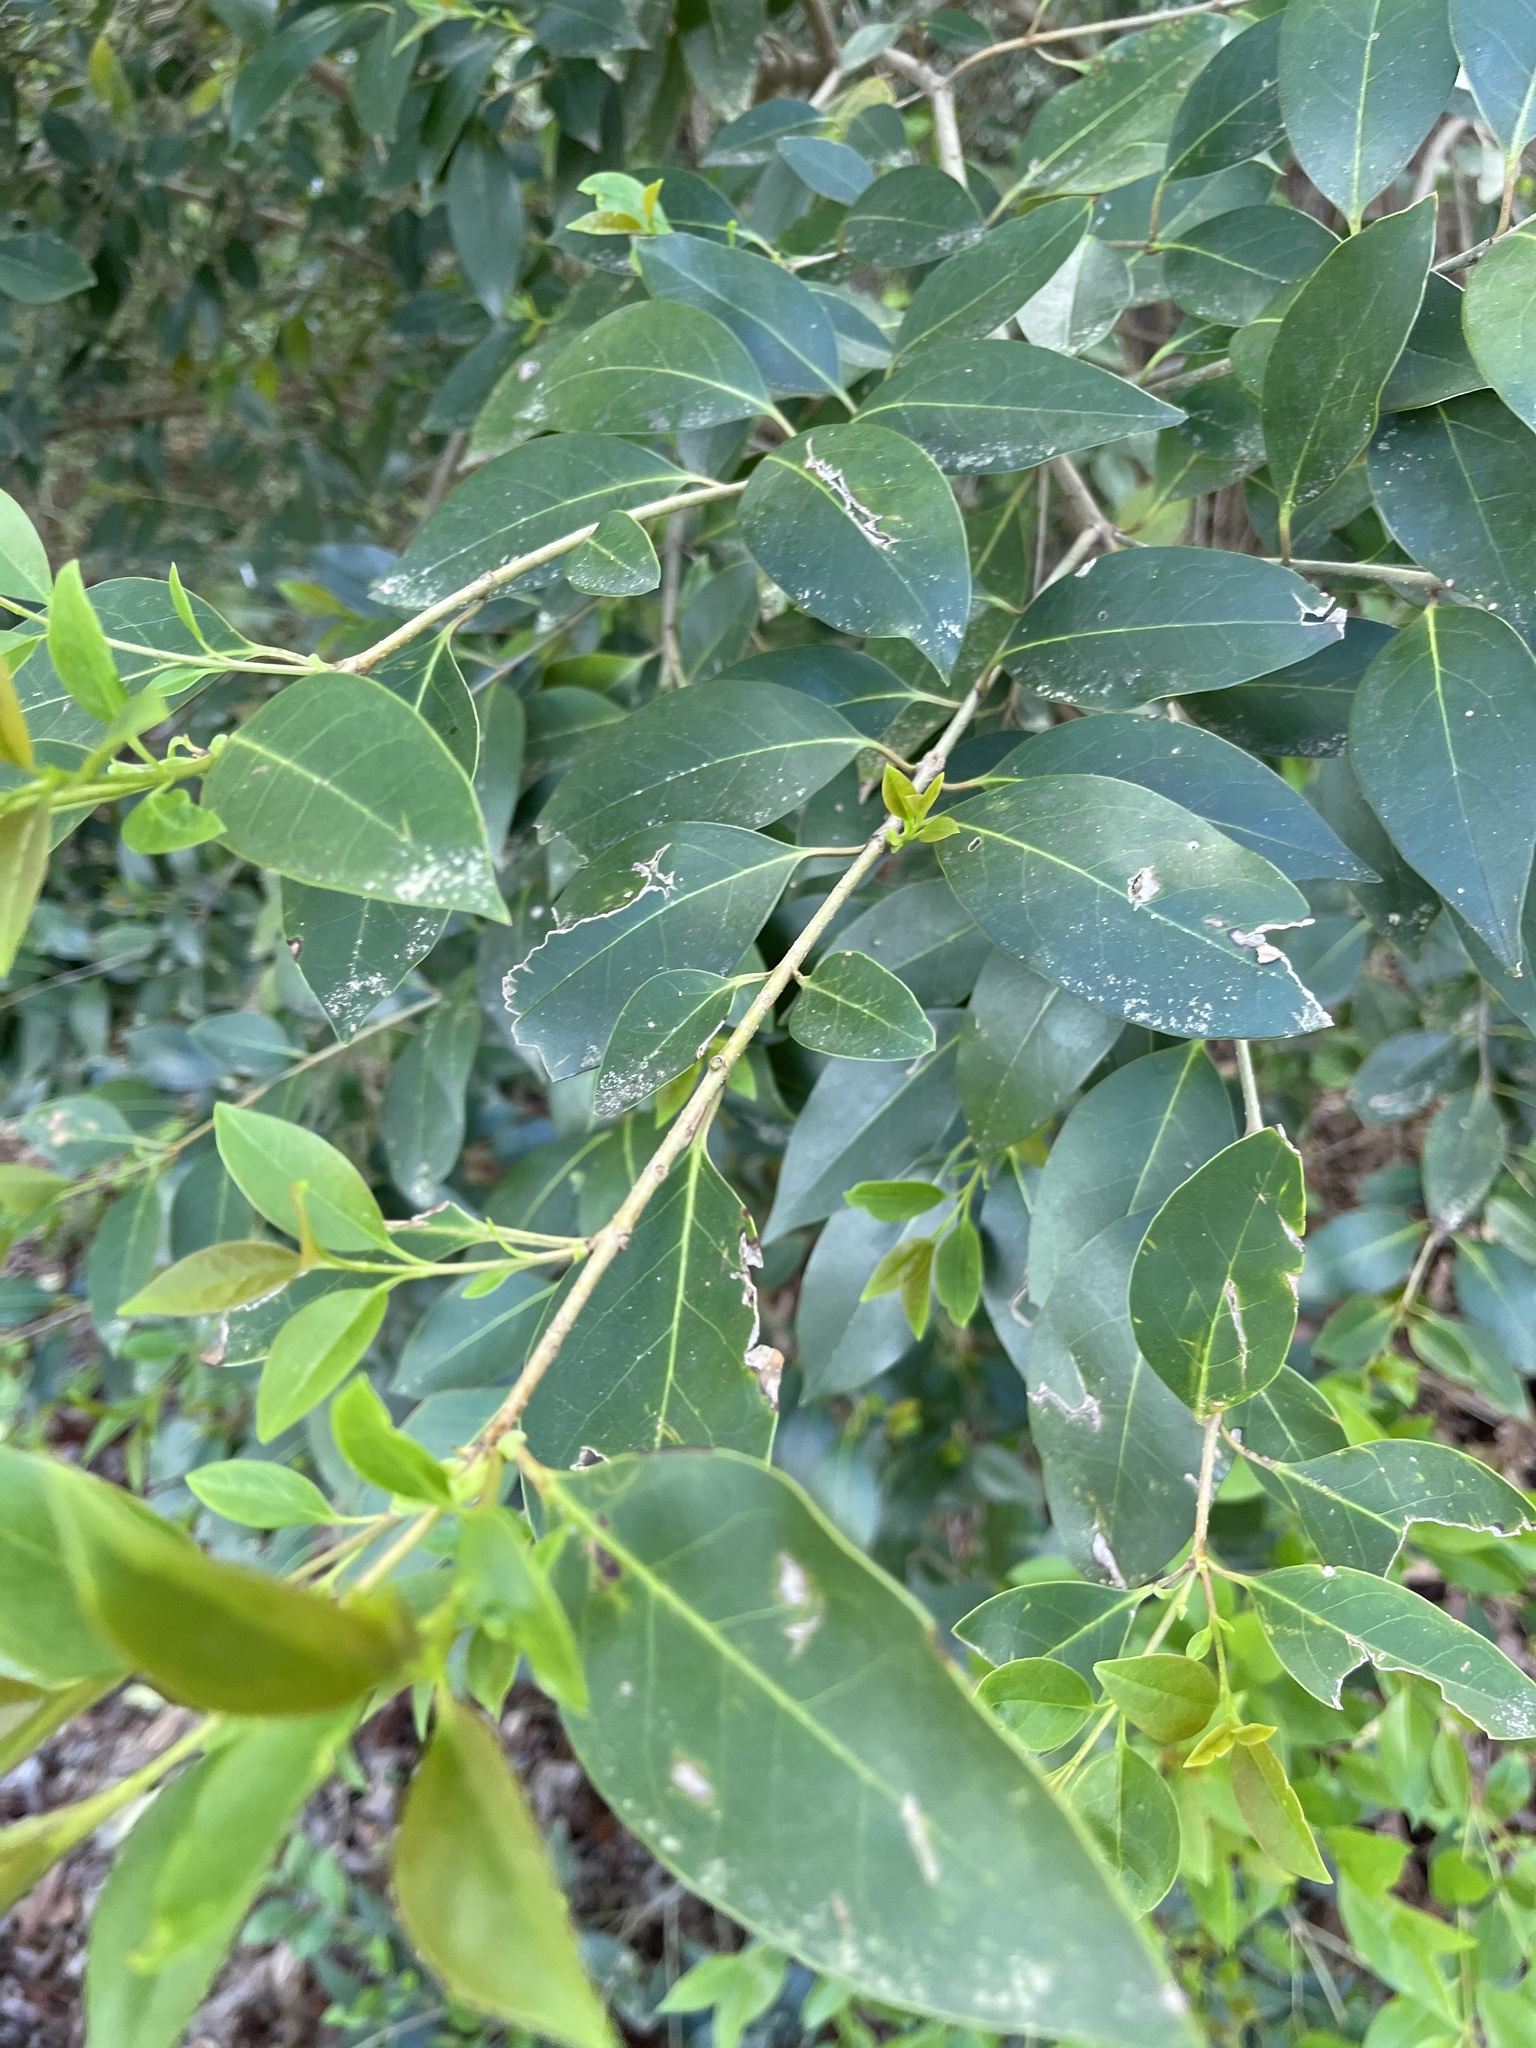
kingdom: Plantae
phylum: Tracheophyta
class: Magnoliopsida
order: Lamiales
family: Oleaceae
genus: Ligustrum
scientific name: Ligustrum lucidum
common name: Glossy privet
